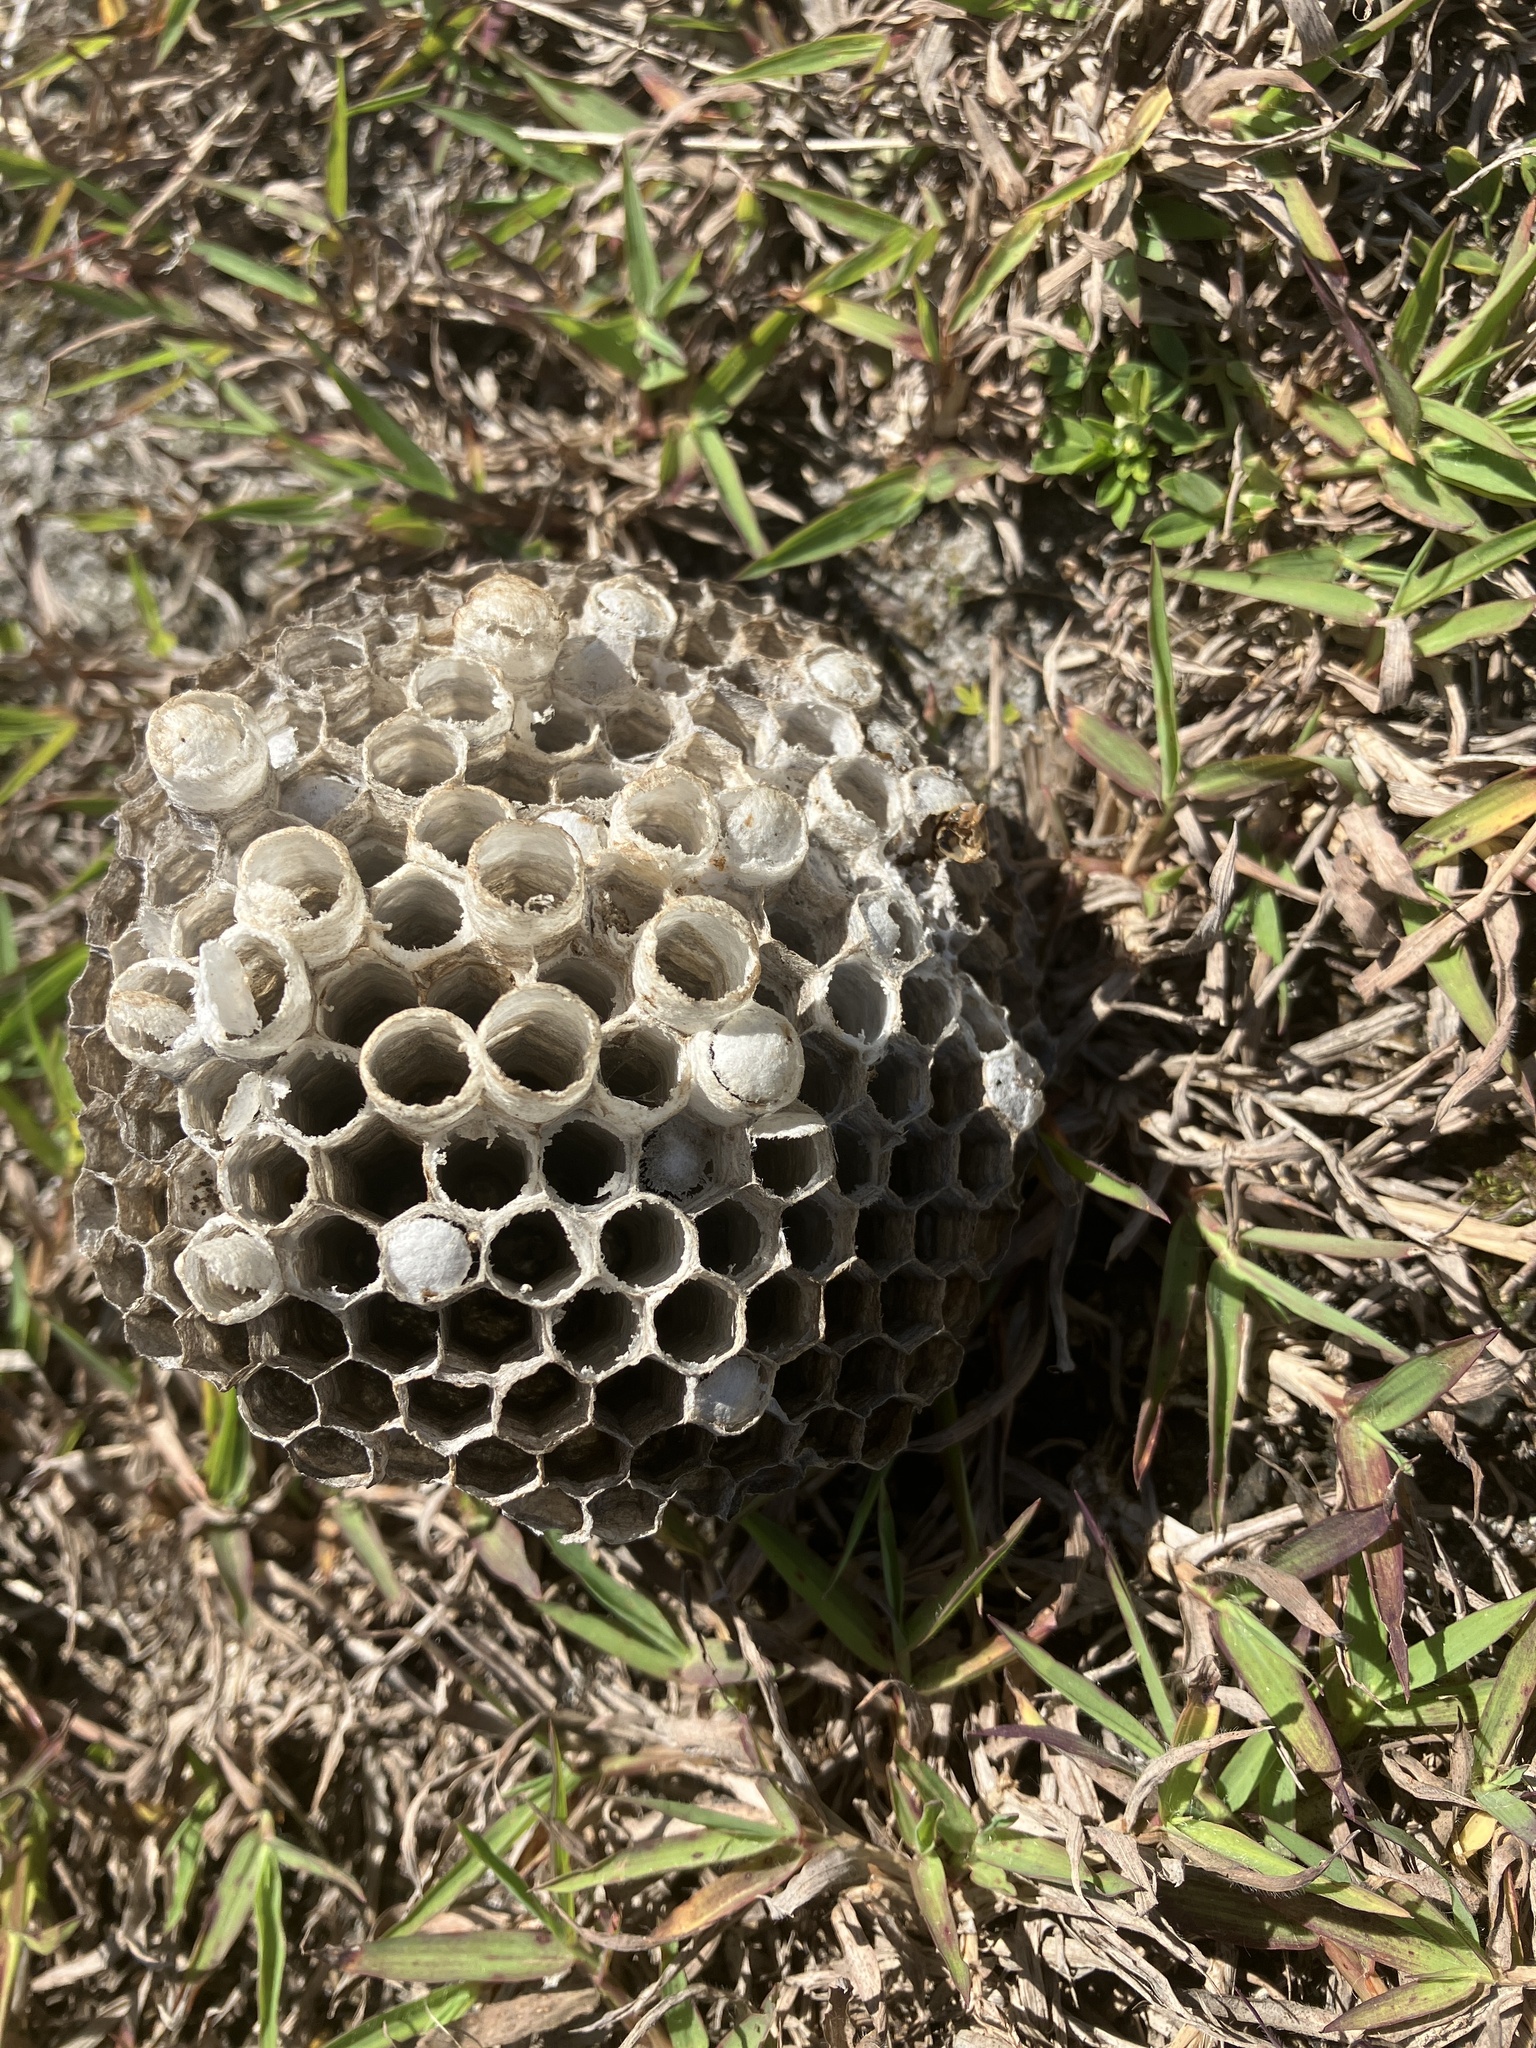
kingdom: Animalia
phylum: Arthropoda
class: Insecta
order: Hymenoptera
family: Eumenidae
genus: Polistes
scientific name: Polistes olivaceus
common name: Paper wasp
